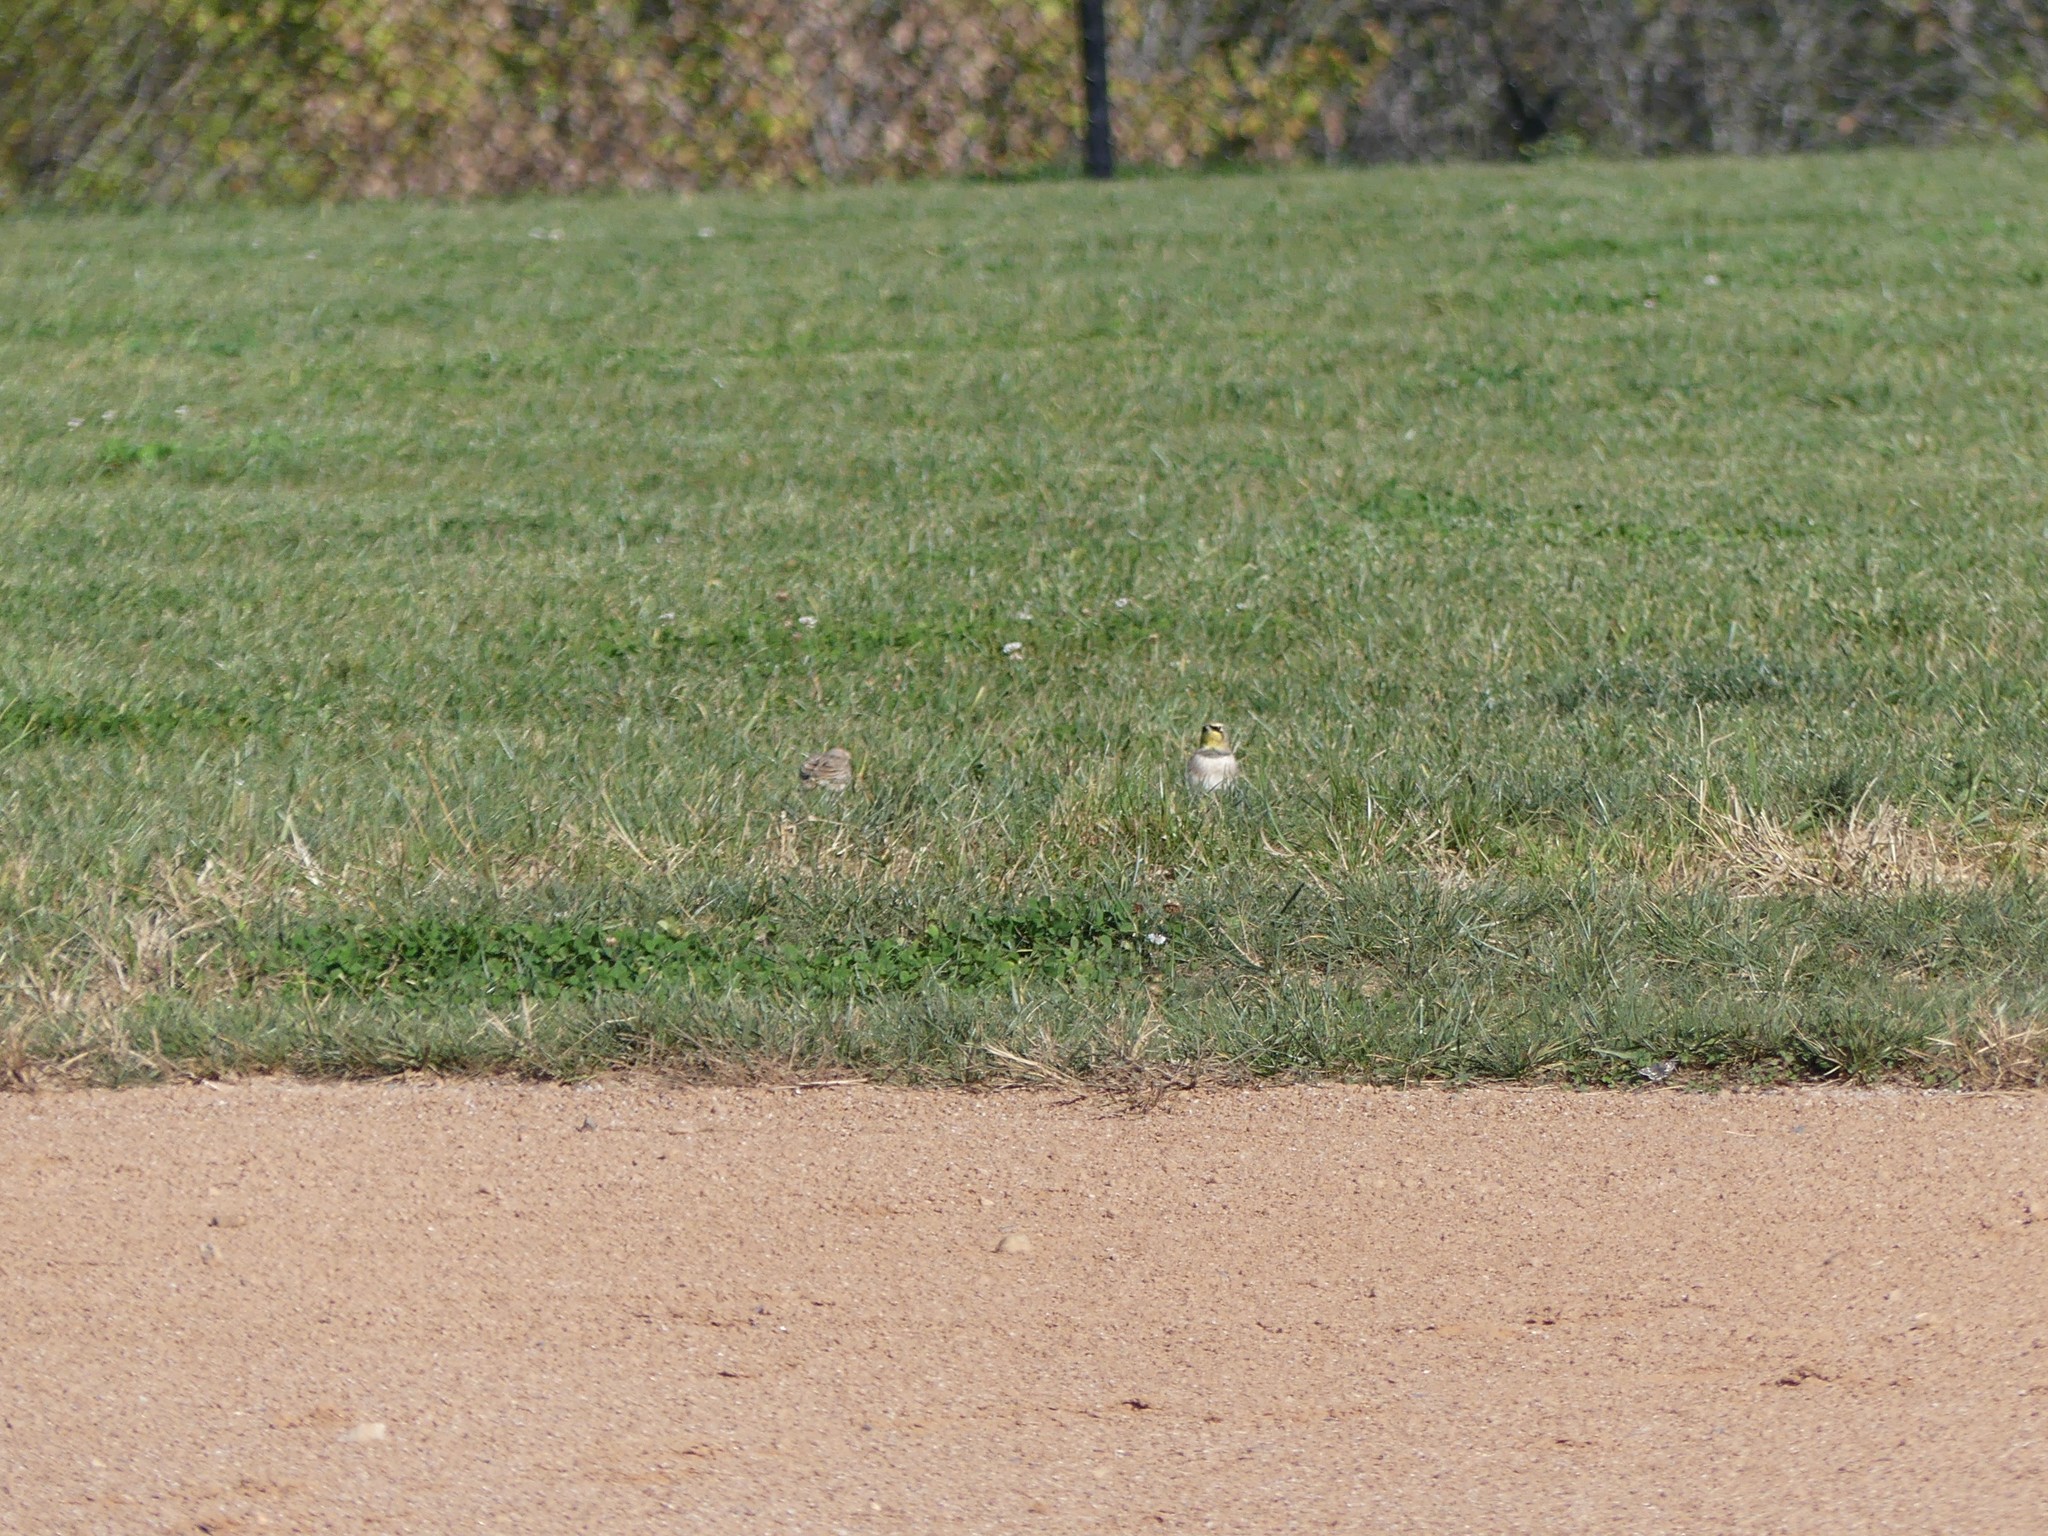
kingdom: Animalia
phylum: Chordata
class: Aves
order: Passeriformes
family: Alaudidae
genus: Eremophila
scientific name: Eremophila alpestris
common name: Horned lark
